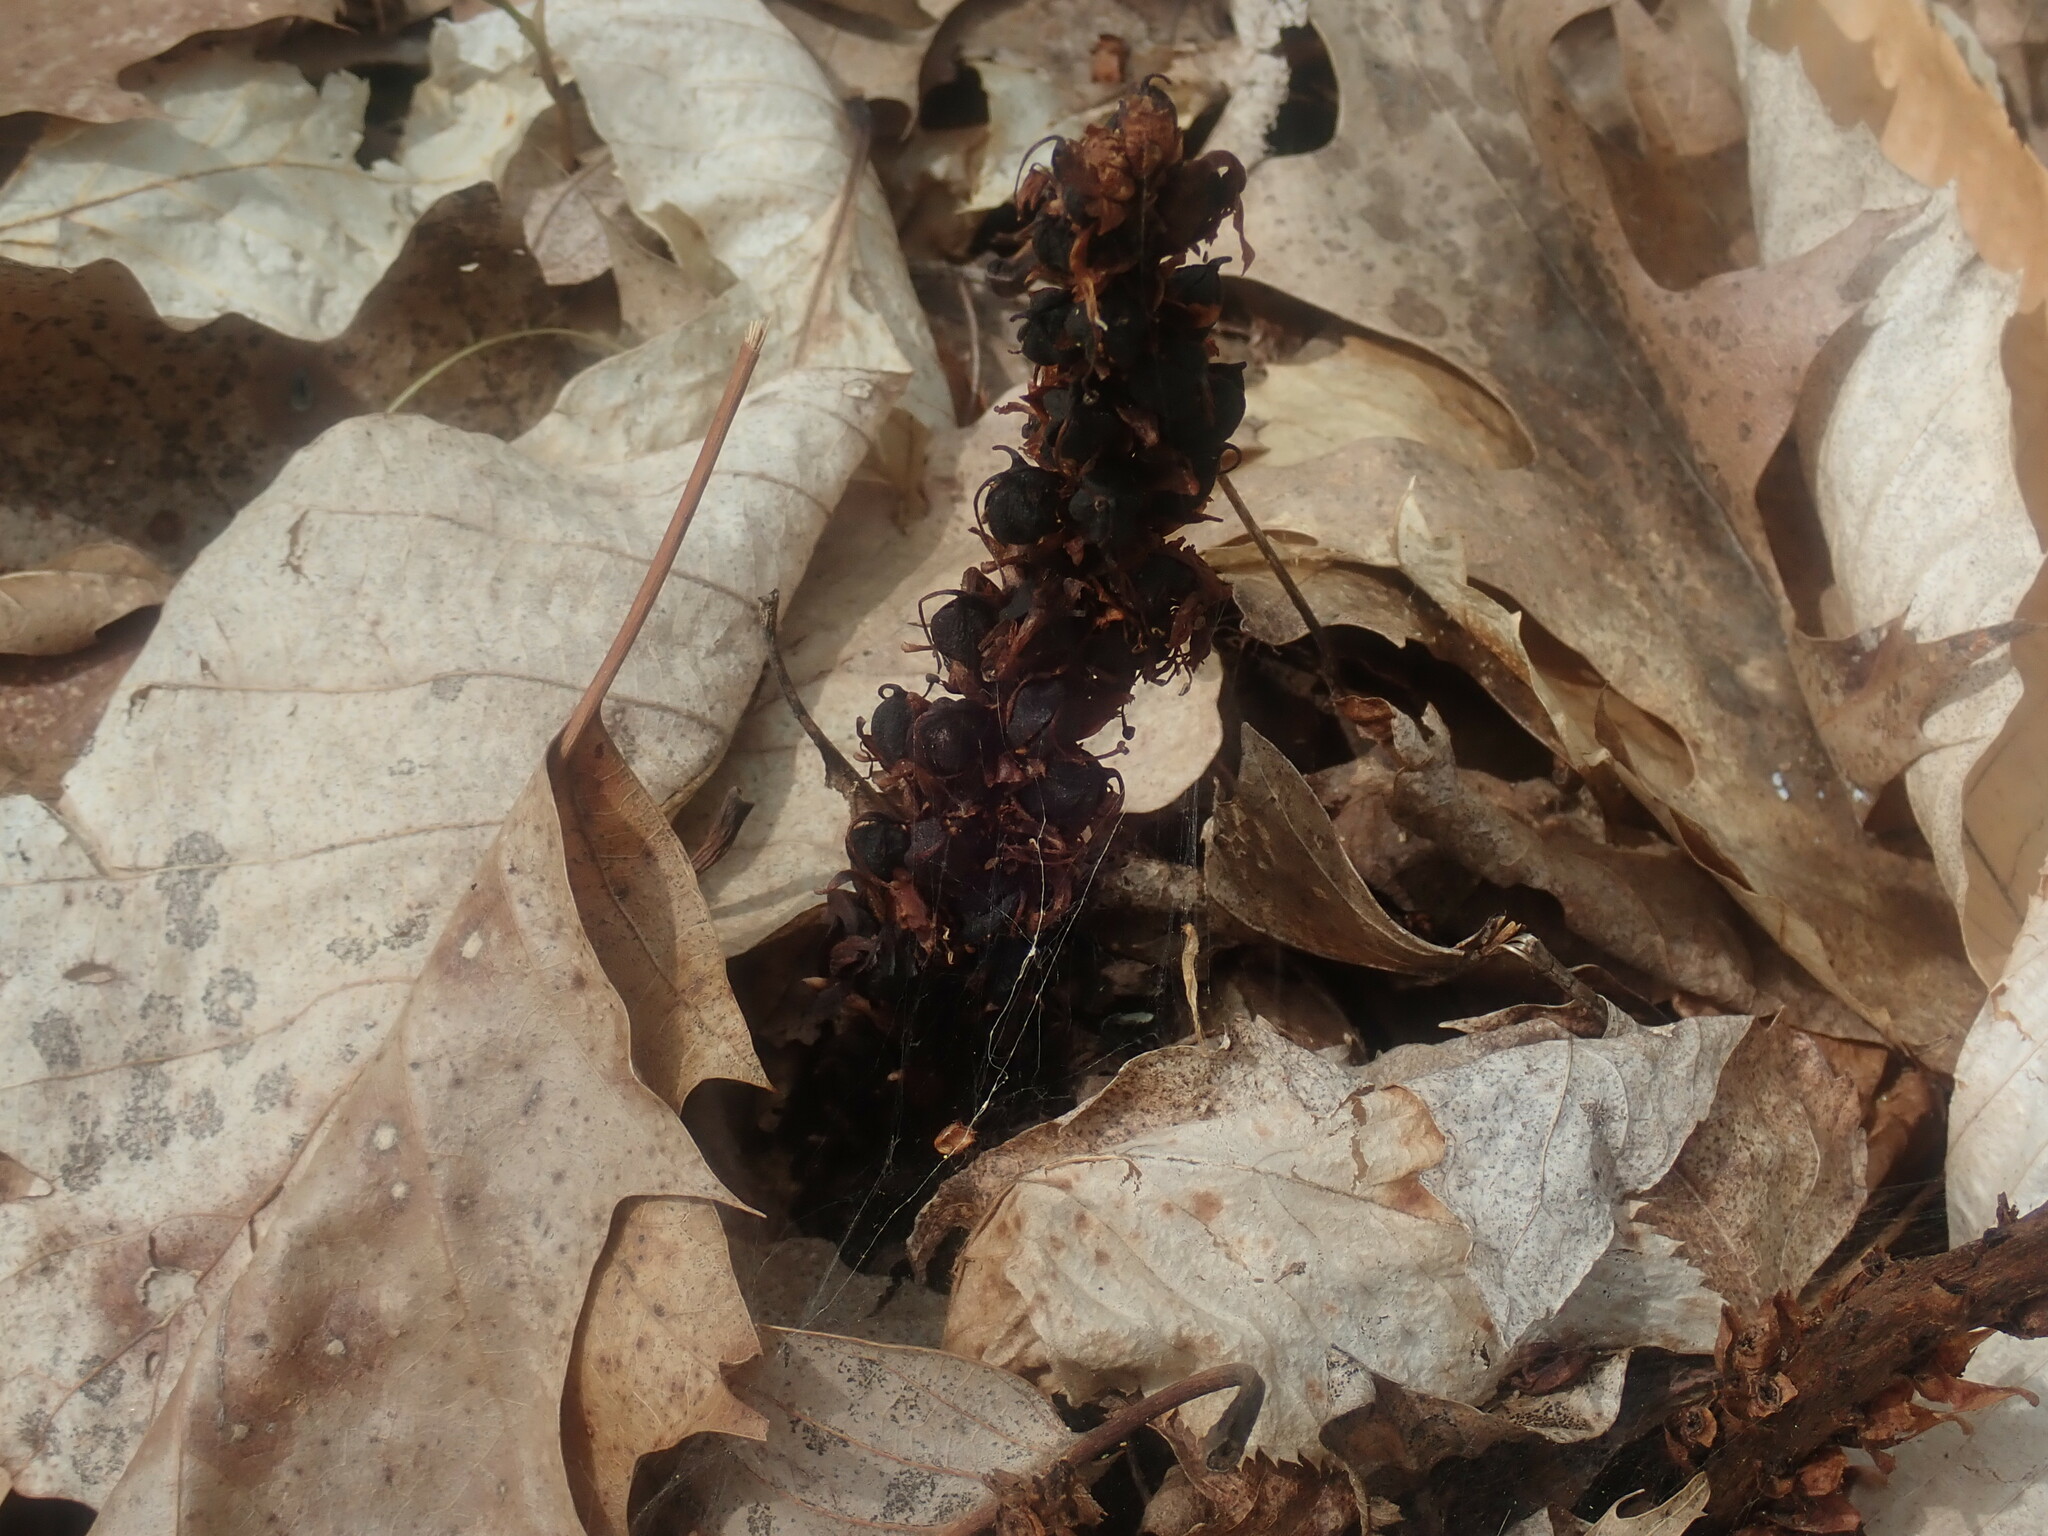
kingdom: Plantae
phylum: Tracheophyta
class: Magnoliopsida
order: Lamiales
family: Orobanchaceae
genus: Conopholis
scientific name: Conopholis americana
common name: American cancer-root
